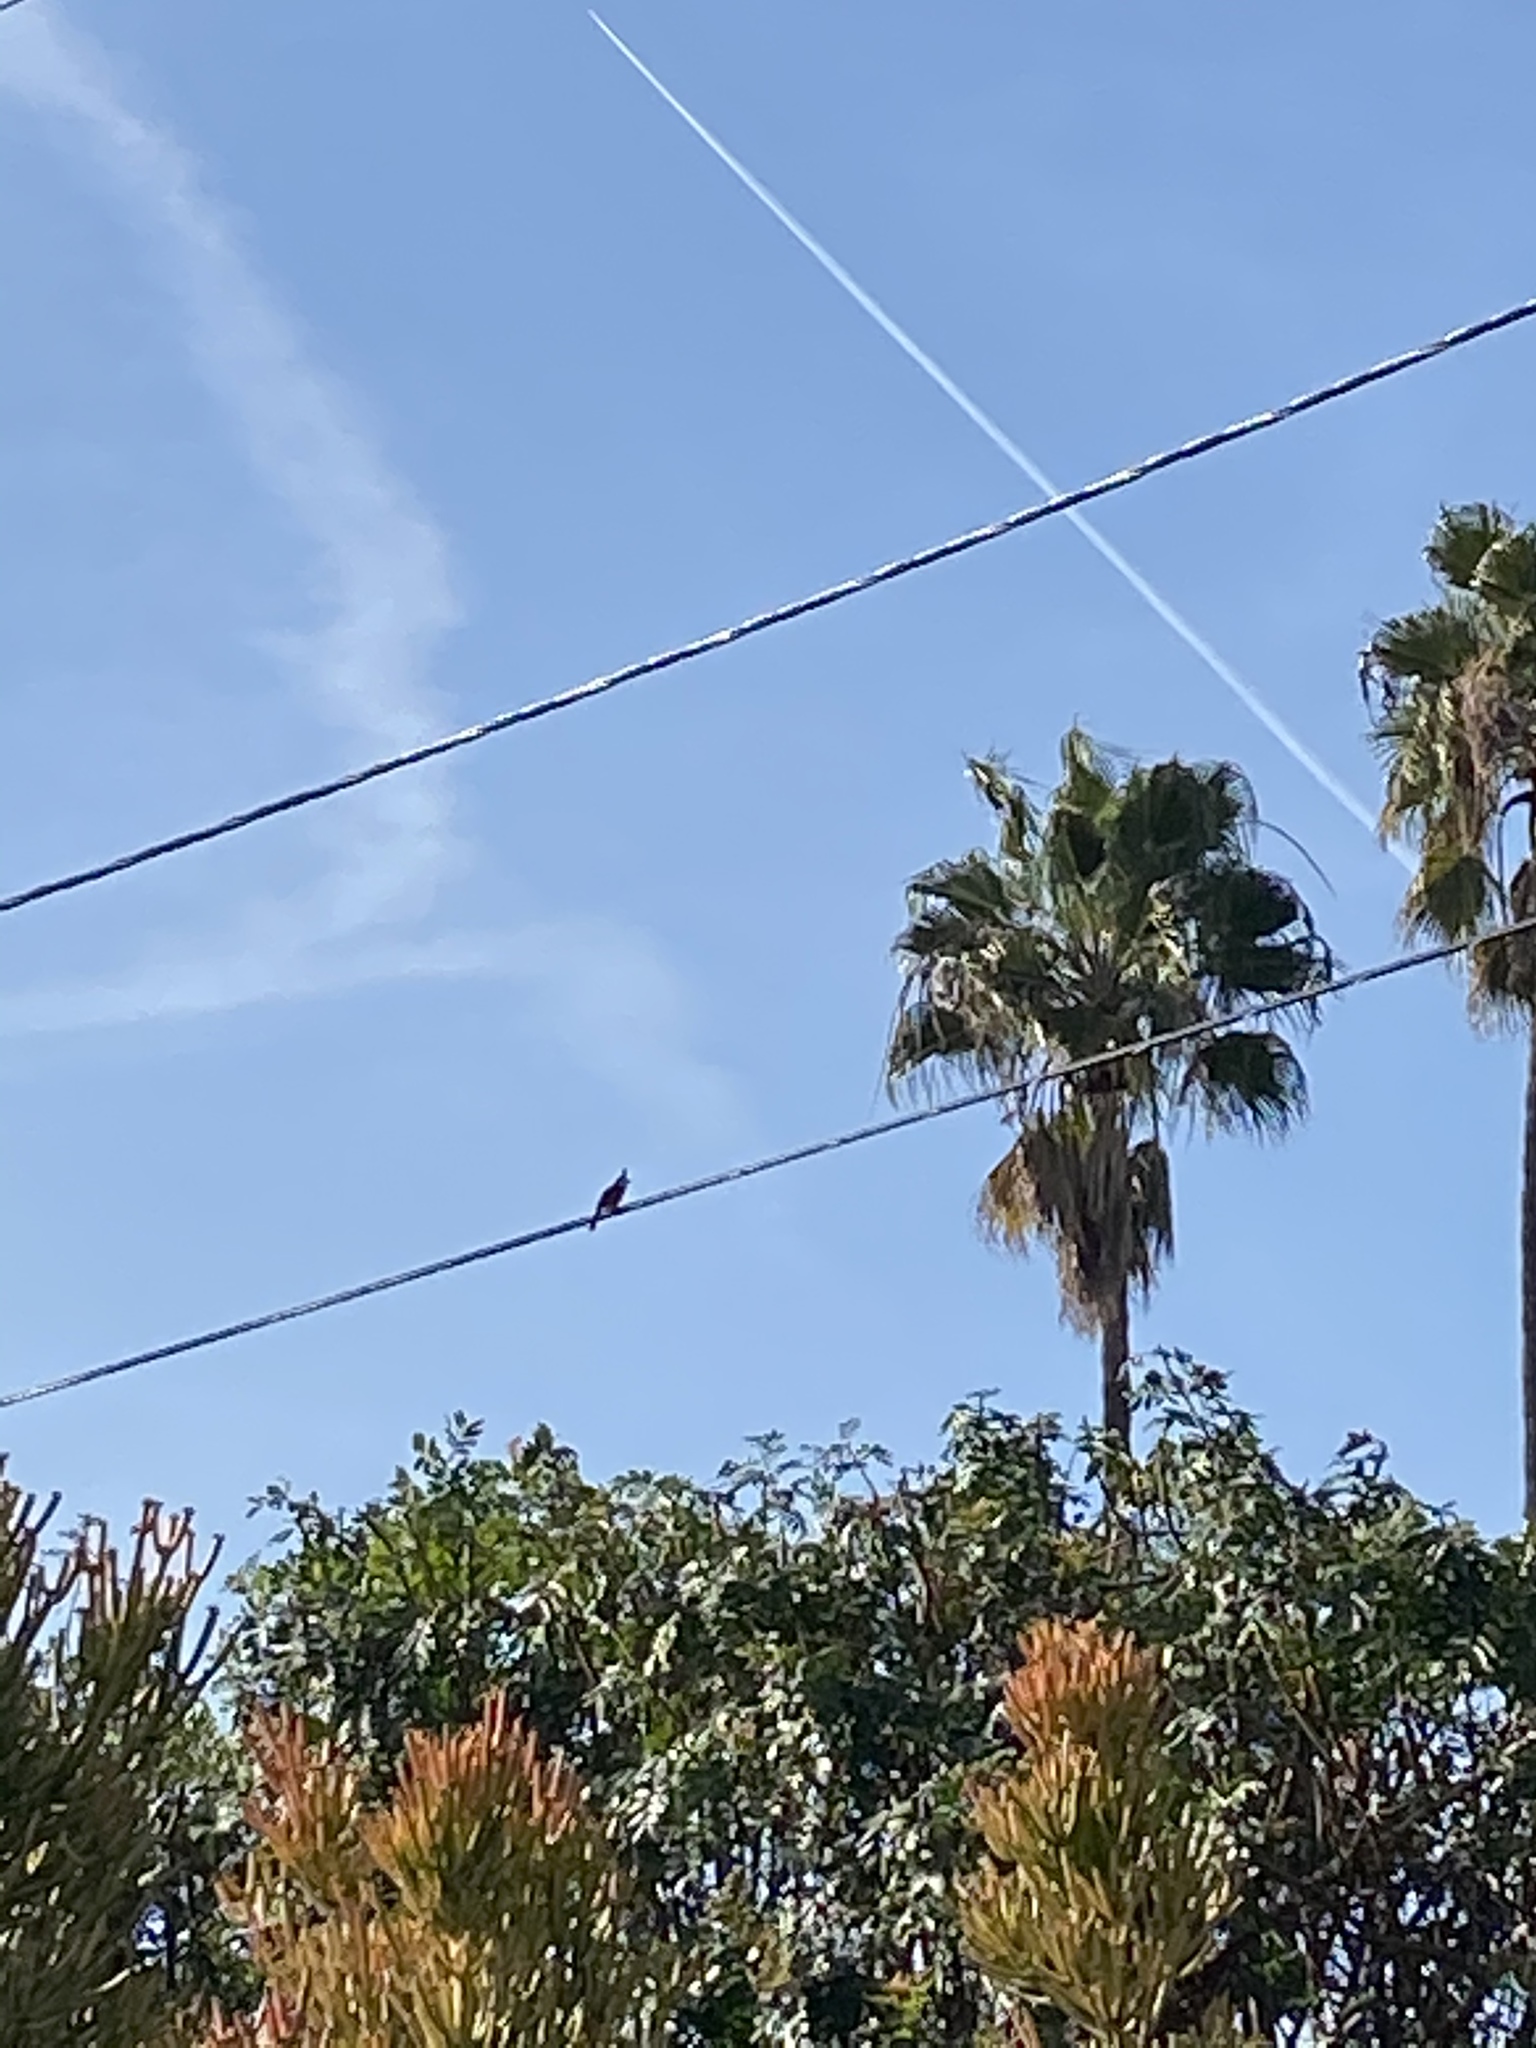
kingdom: Animalia
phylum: Chordata
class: Aves
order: Passeriformes
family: Pycnonotidae
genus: Pycnonotus
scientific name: Pycnonotus jocosus
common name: Red-whiskered bulbul
